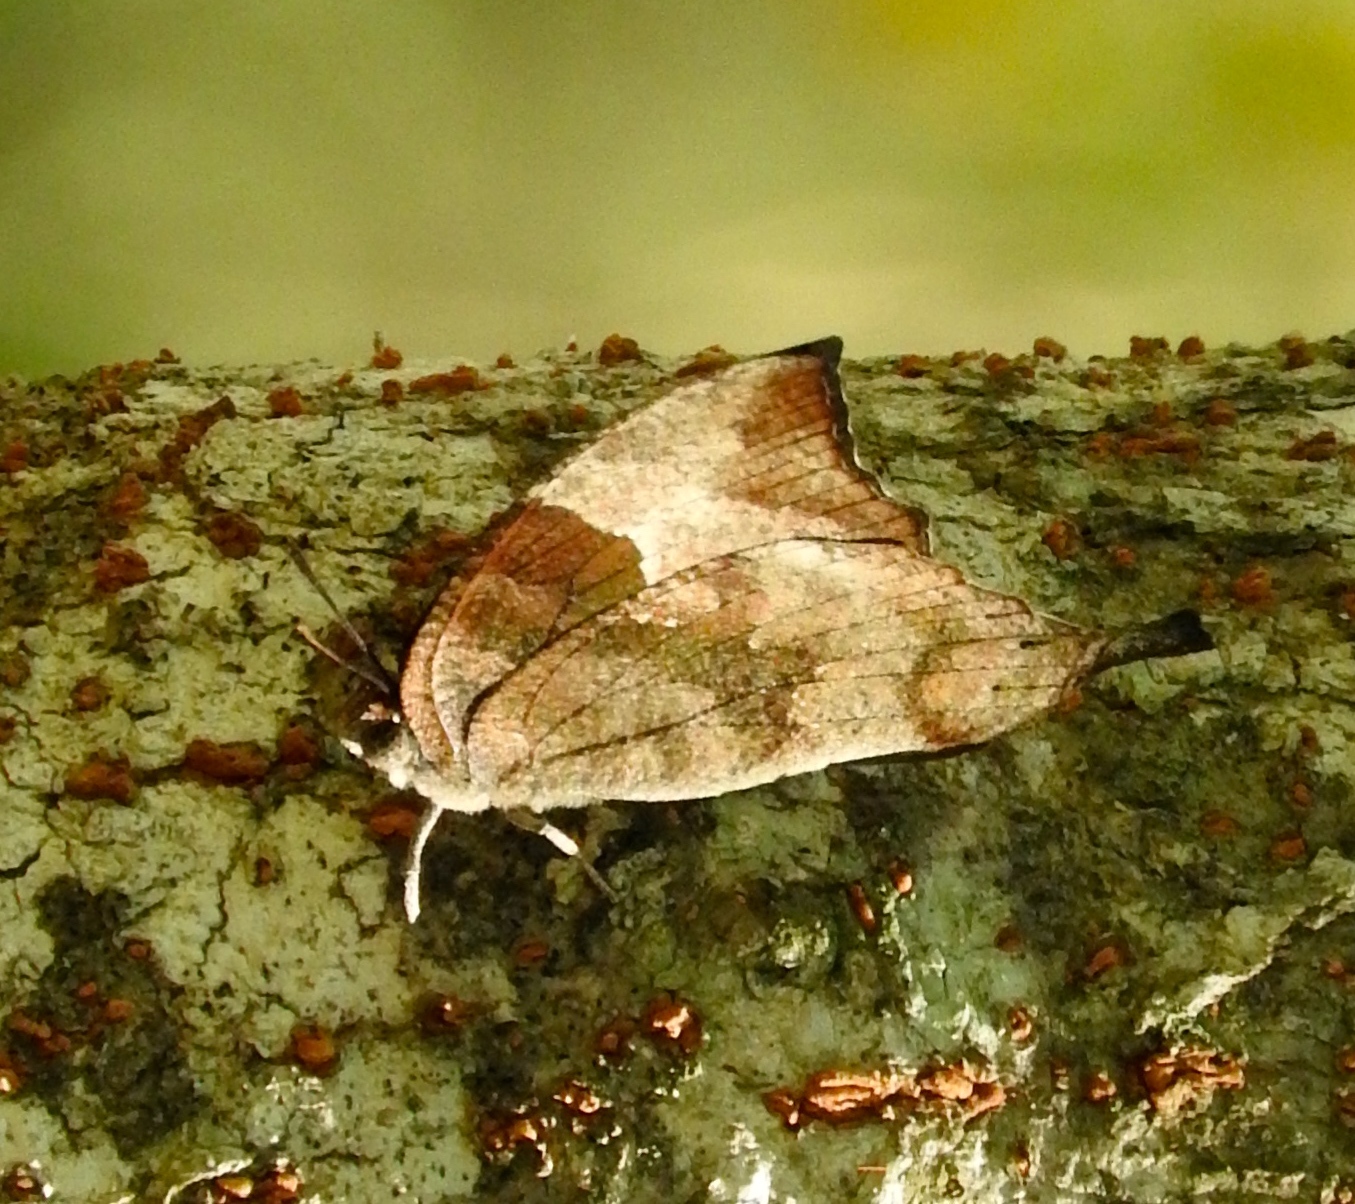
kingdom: Animalia
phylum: Arthropoda
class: Insecta
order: Lepidoptera
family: Nymphalidae
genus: Anaea
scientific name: Anaea pithyusa
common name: Pale-spotted leafwing
